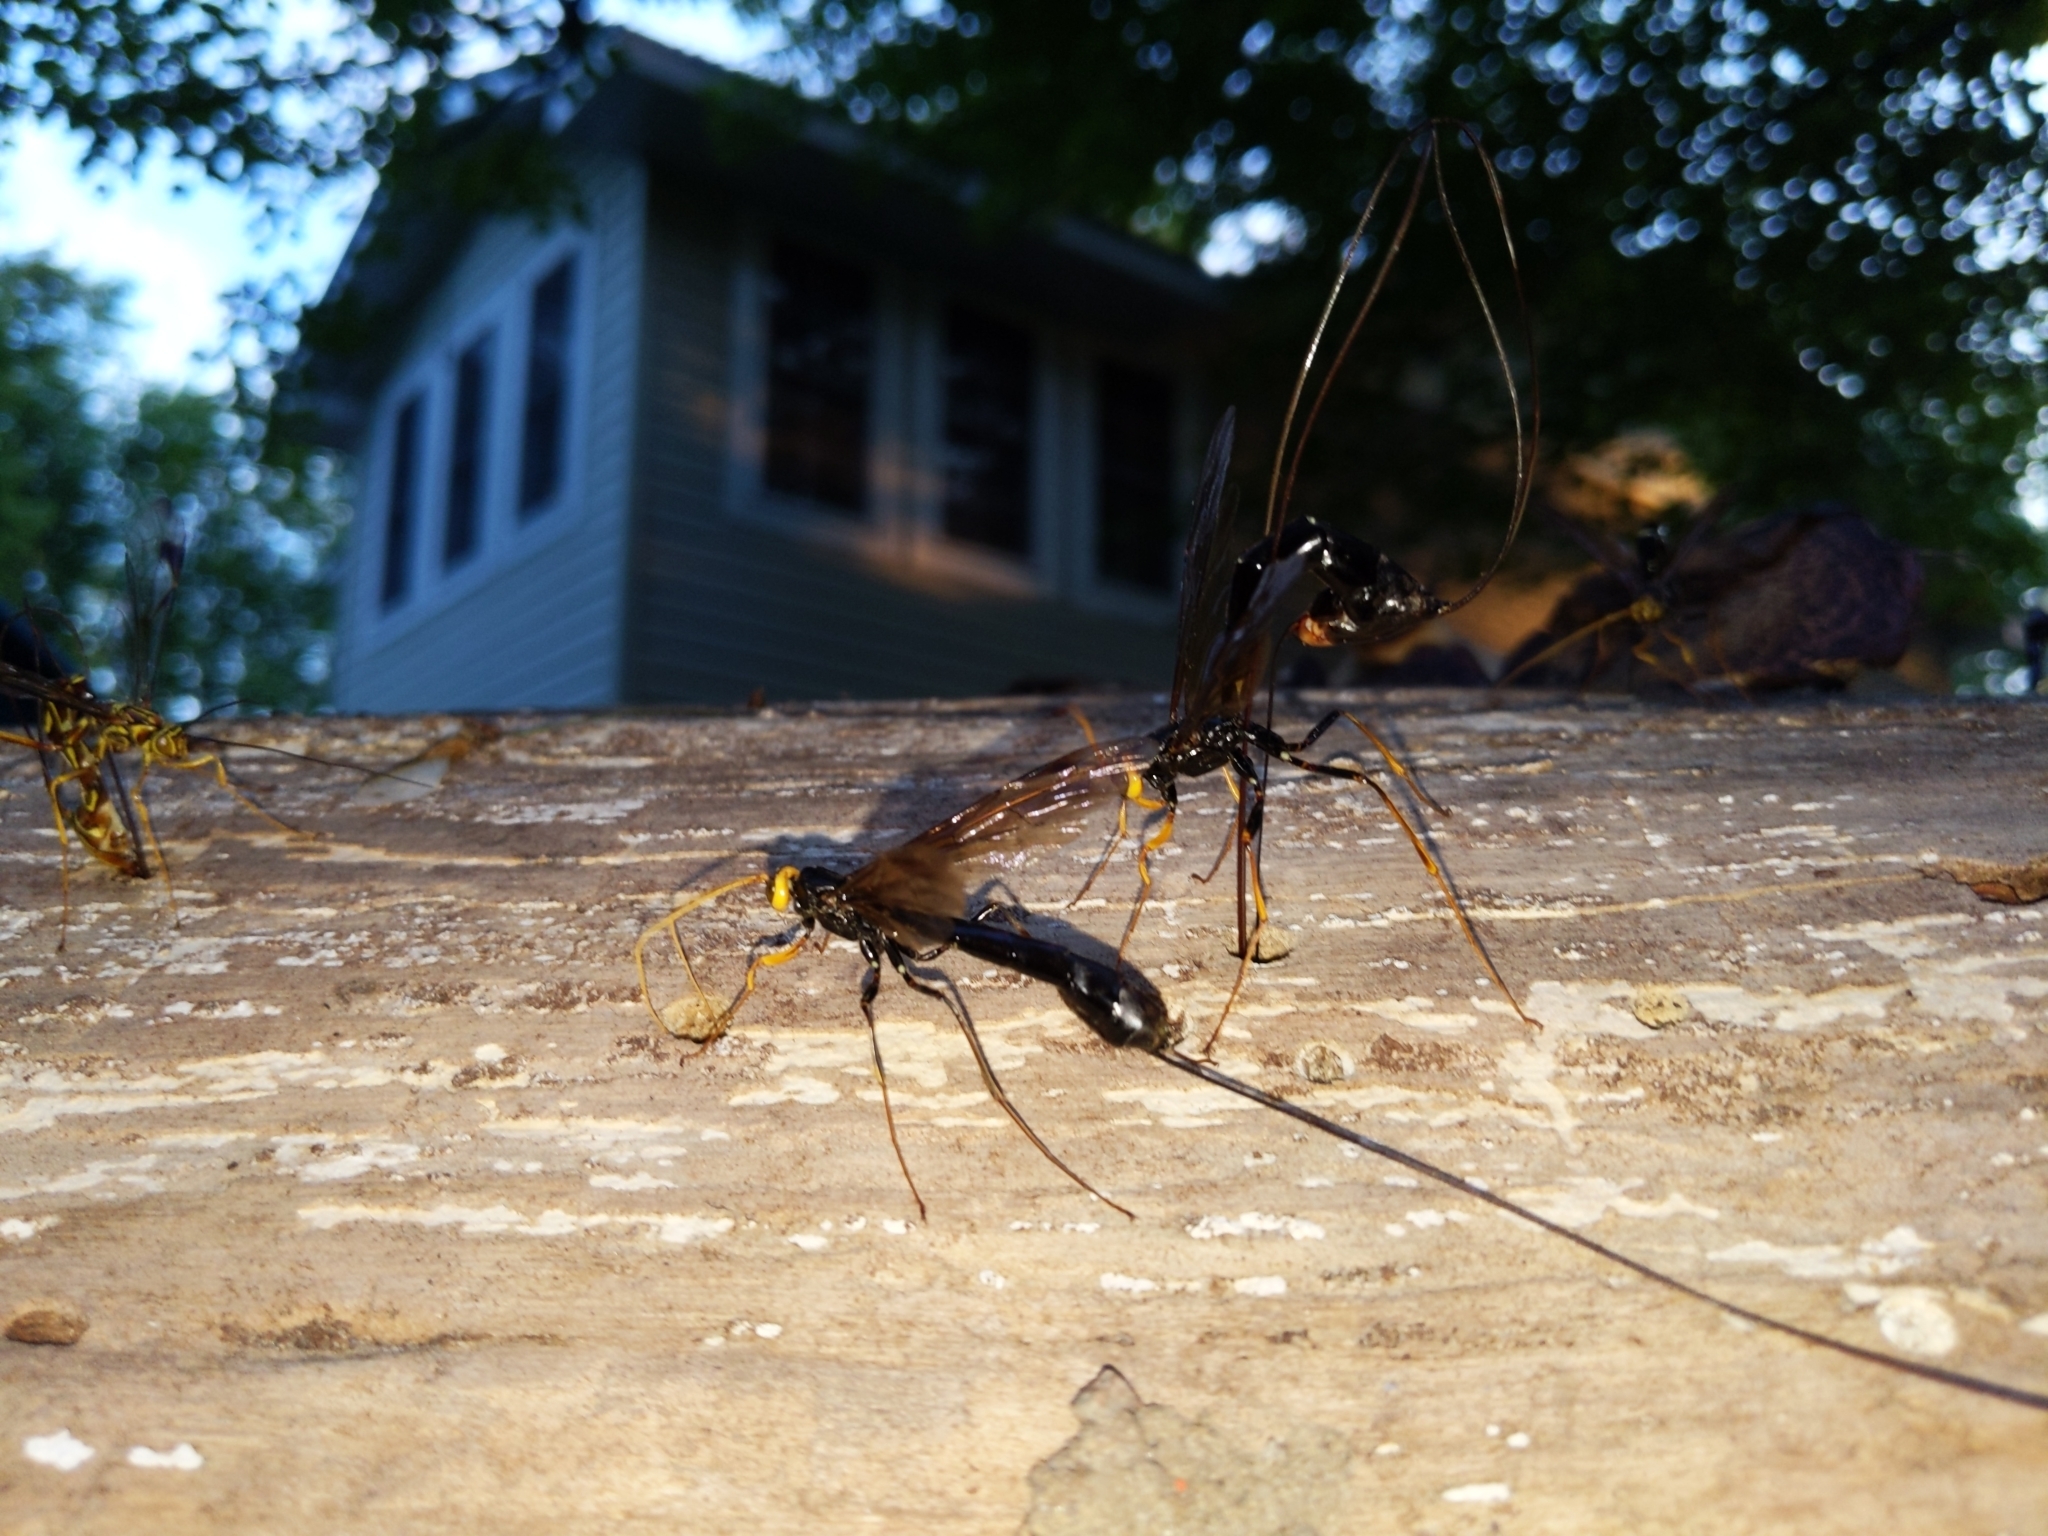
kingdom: Animalia
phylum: Arthropoda
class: Insecta
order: Hymenoptera
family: Ichneumonidae
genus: Megarhyssa
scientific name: Megarhyssa atrata
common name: Black giant ichneumonid wasp
